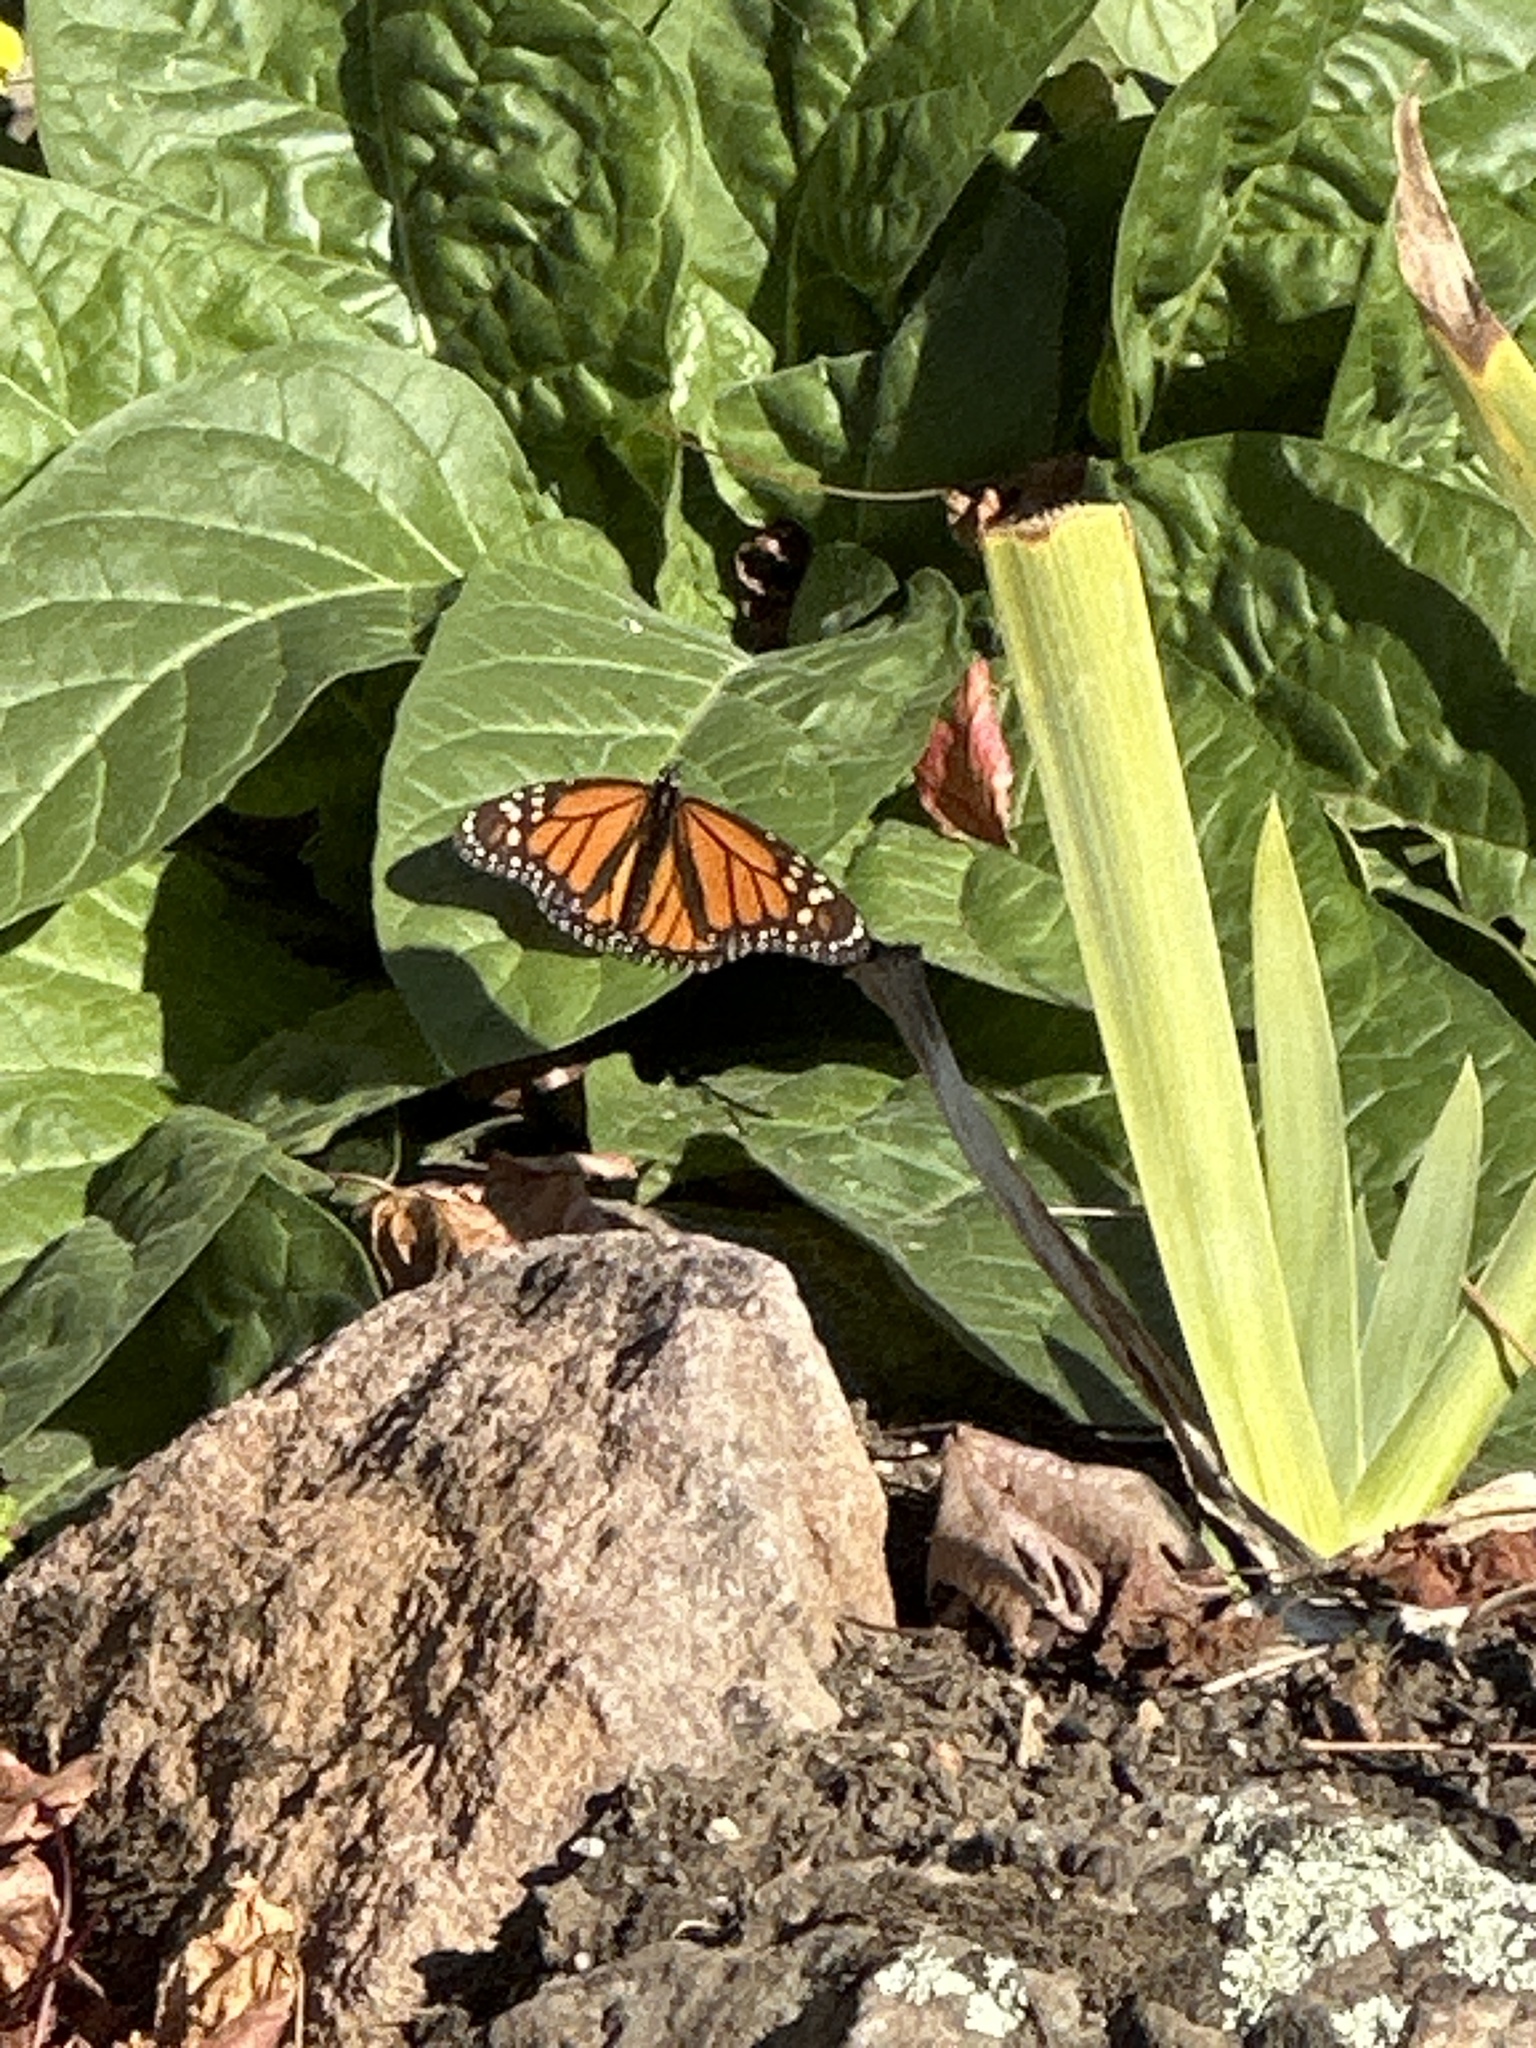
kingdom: Animalia
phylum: Arthropoda
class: Insecta
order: Lepidoptera
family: Nymphalidae
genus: Danaus
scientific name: Danaus plexippus
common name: Monarch
